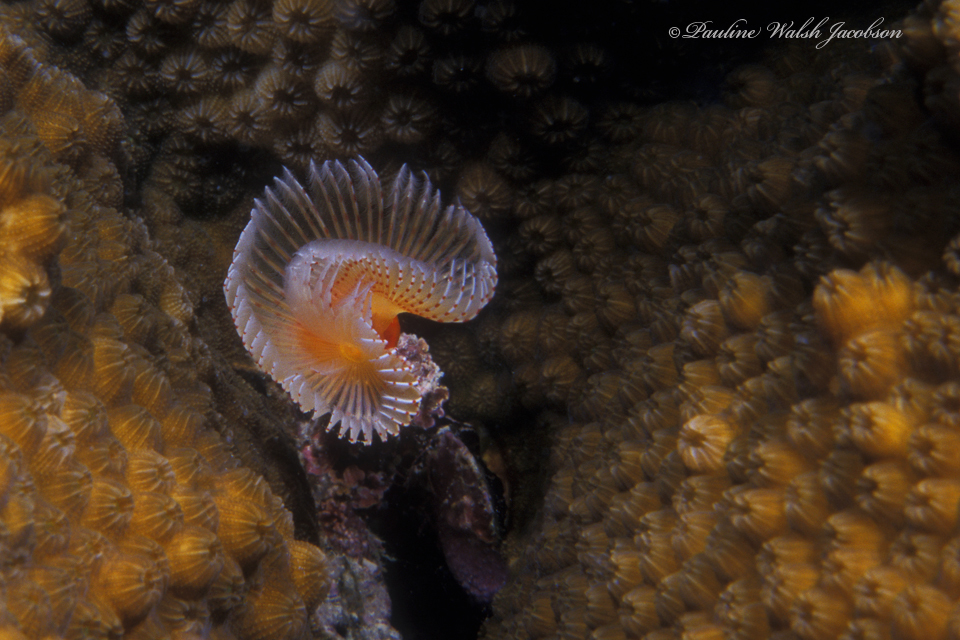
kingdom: Animalia
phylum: Annelida
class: Polychaeta
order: Sabellida
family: Serpulidae
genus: Pomatostegus
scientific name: Pomatostegus stellatus
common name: Star tubeworm
